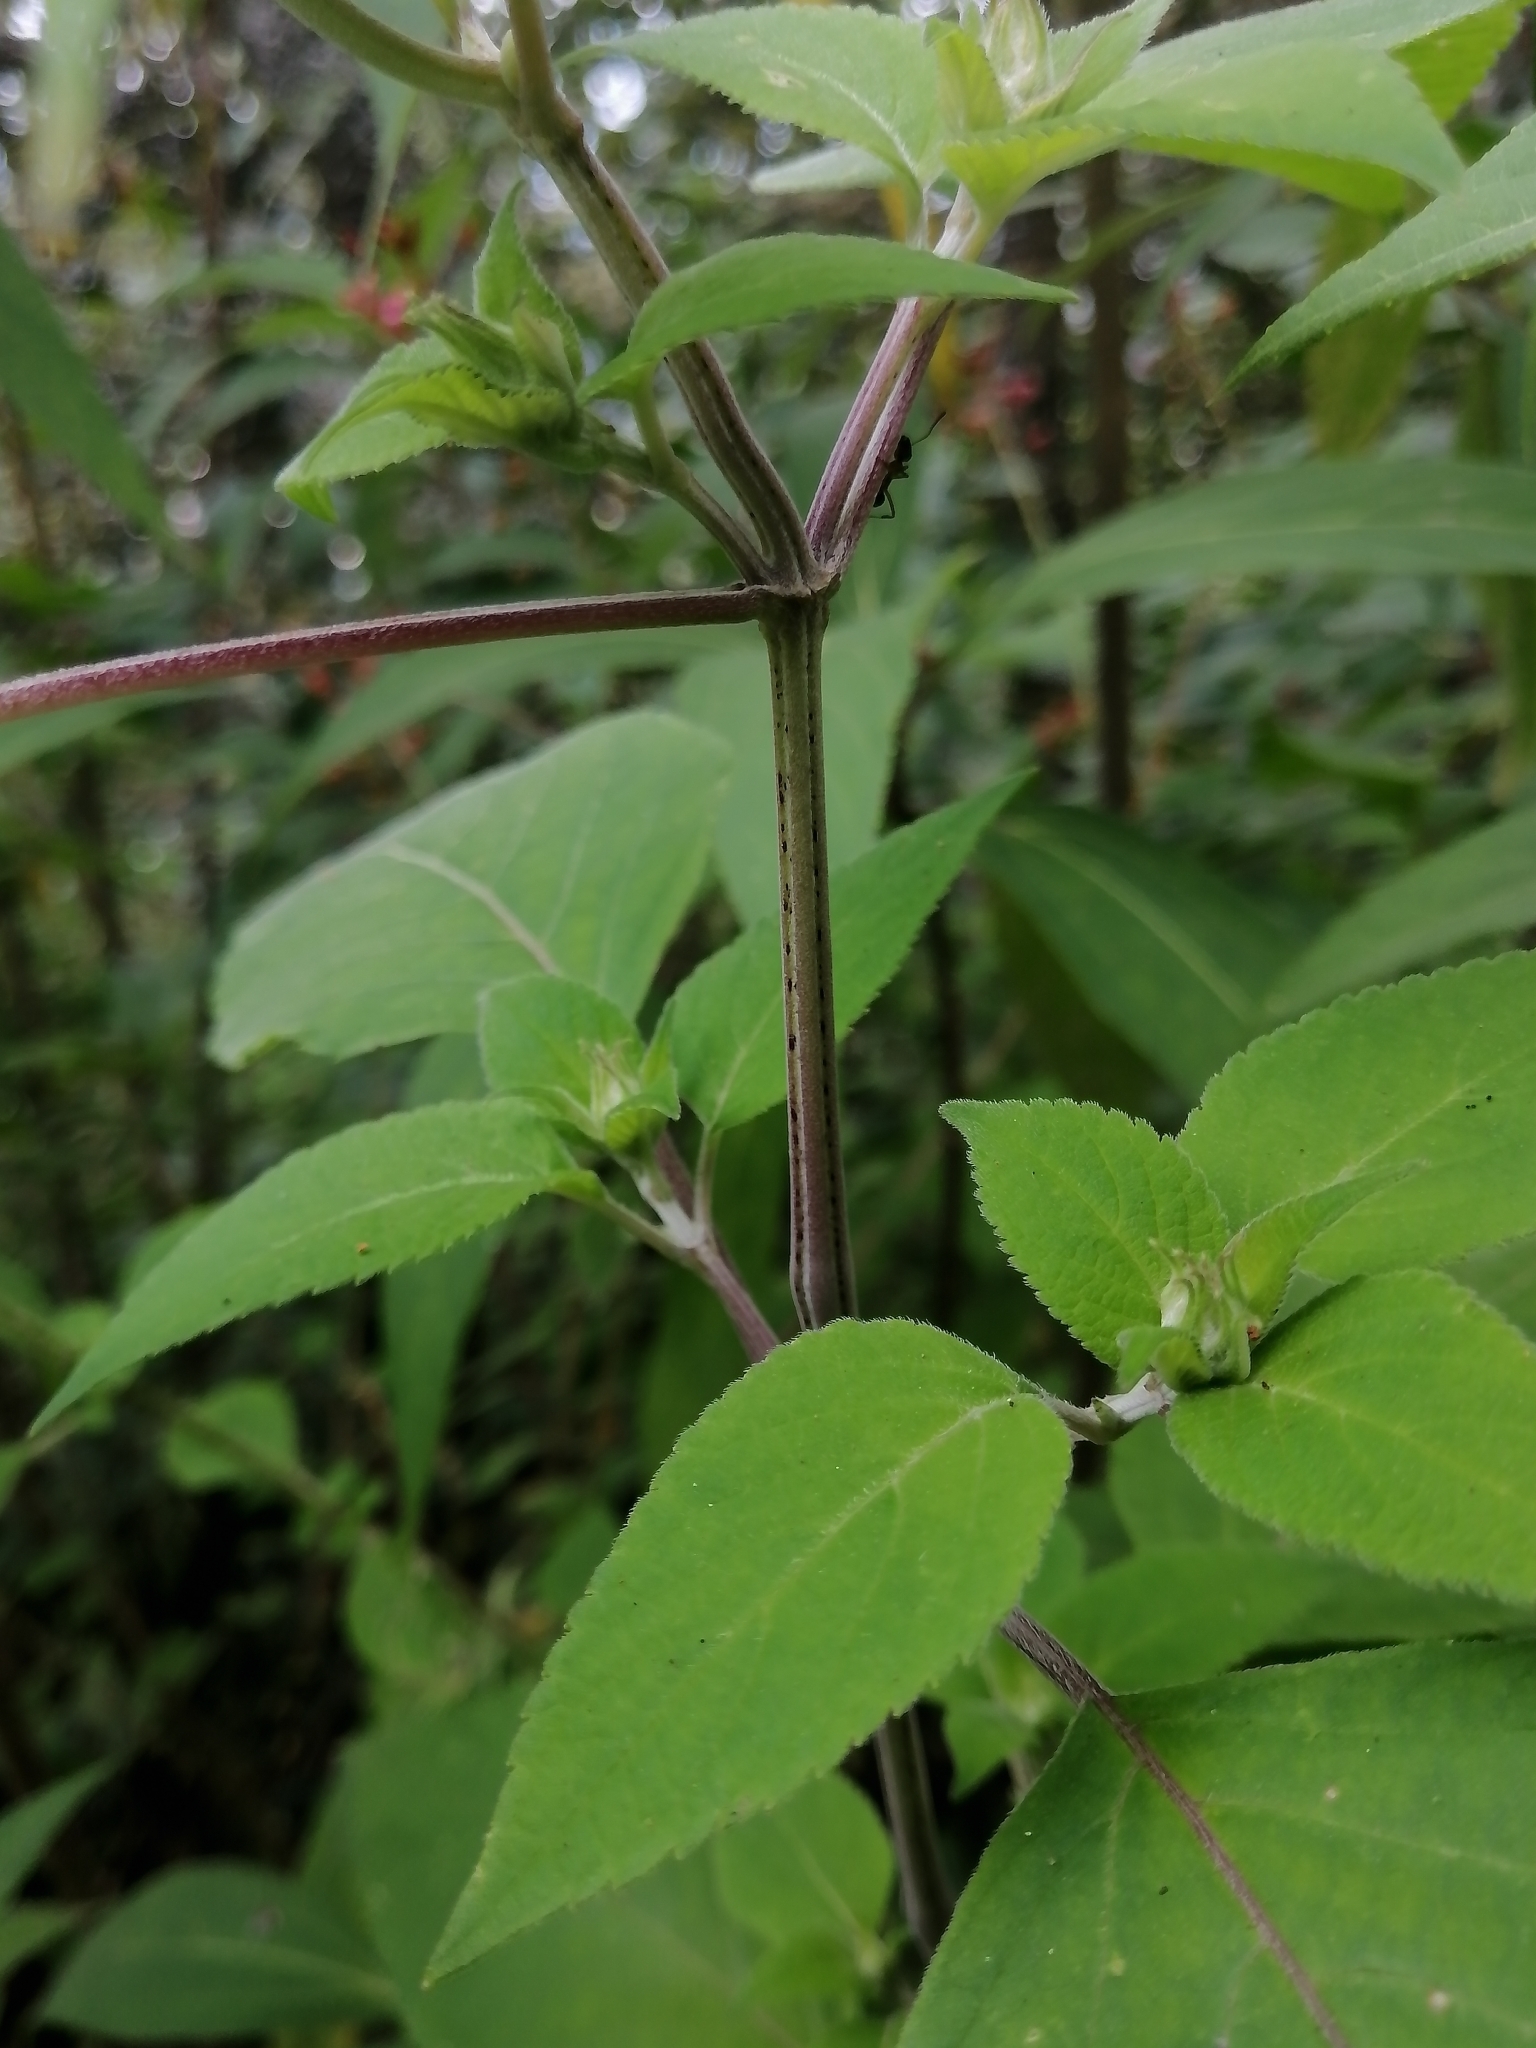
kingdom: Plantae
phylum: Tracheophyta
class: Magnoliopsida
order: Lamiales
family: Lamiaceae
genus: Salvia
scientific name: Salvia cinnabarina
